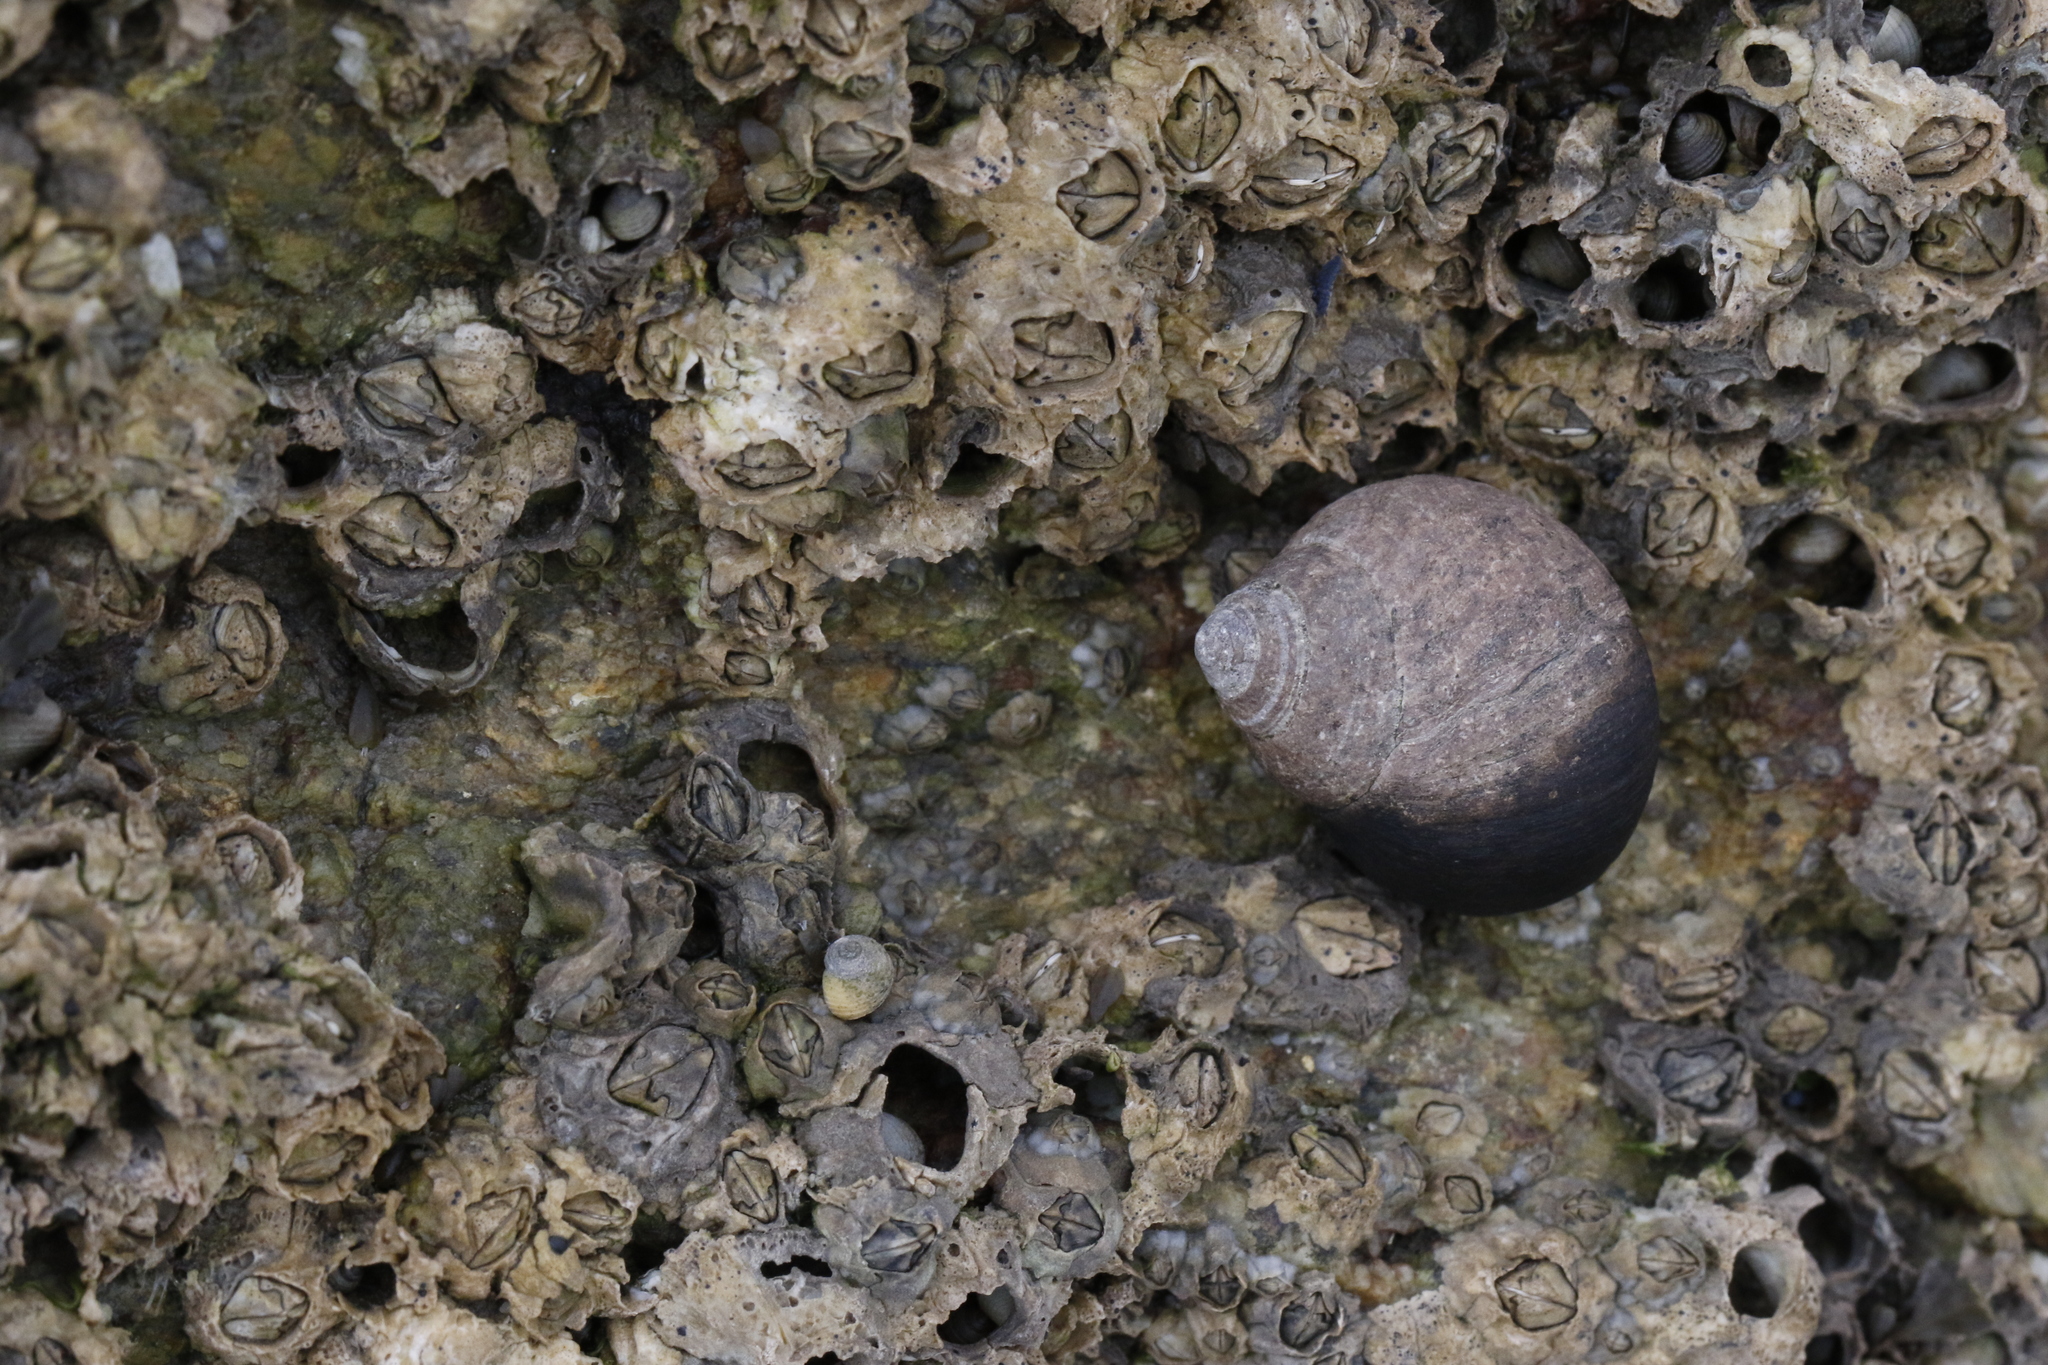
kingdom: Animalia
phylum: Mollusca
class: Gastropoda
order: Littorinimorpha
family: Littorinidae
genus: Littorina
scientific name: Littorina littorea
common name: Common periwinkle
